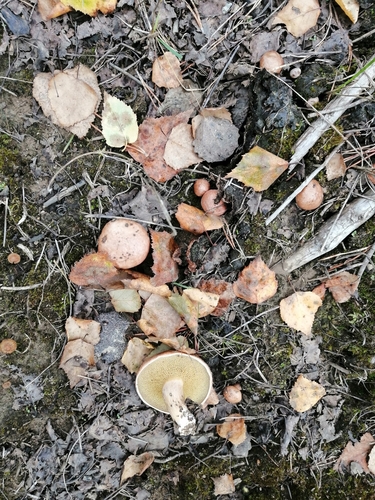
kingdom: Fungi
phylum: Basidiomycota
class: Agaricomycetes
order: Boletales
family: Suillaceae
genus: Suillus
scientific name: Suillus variegatus
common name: Velvet bolete
